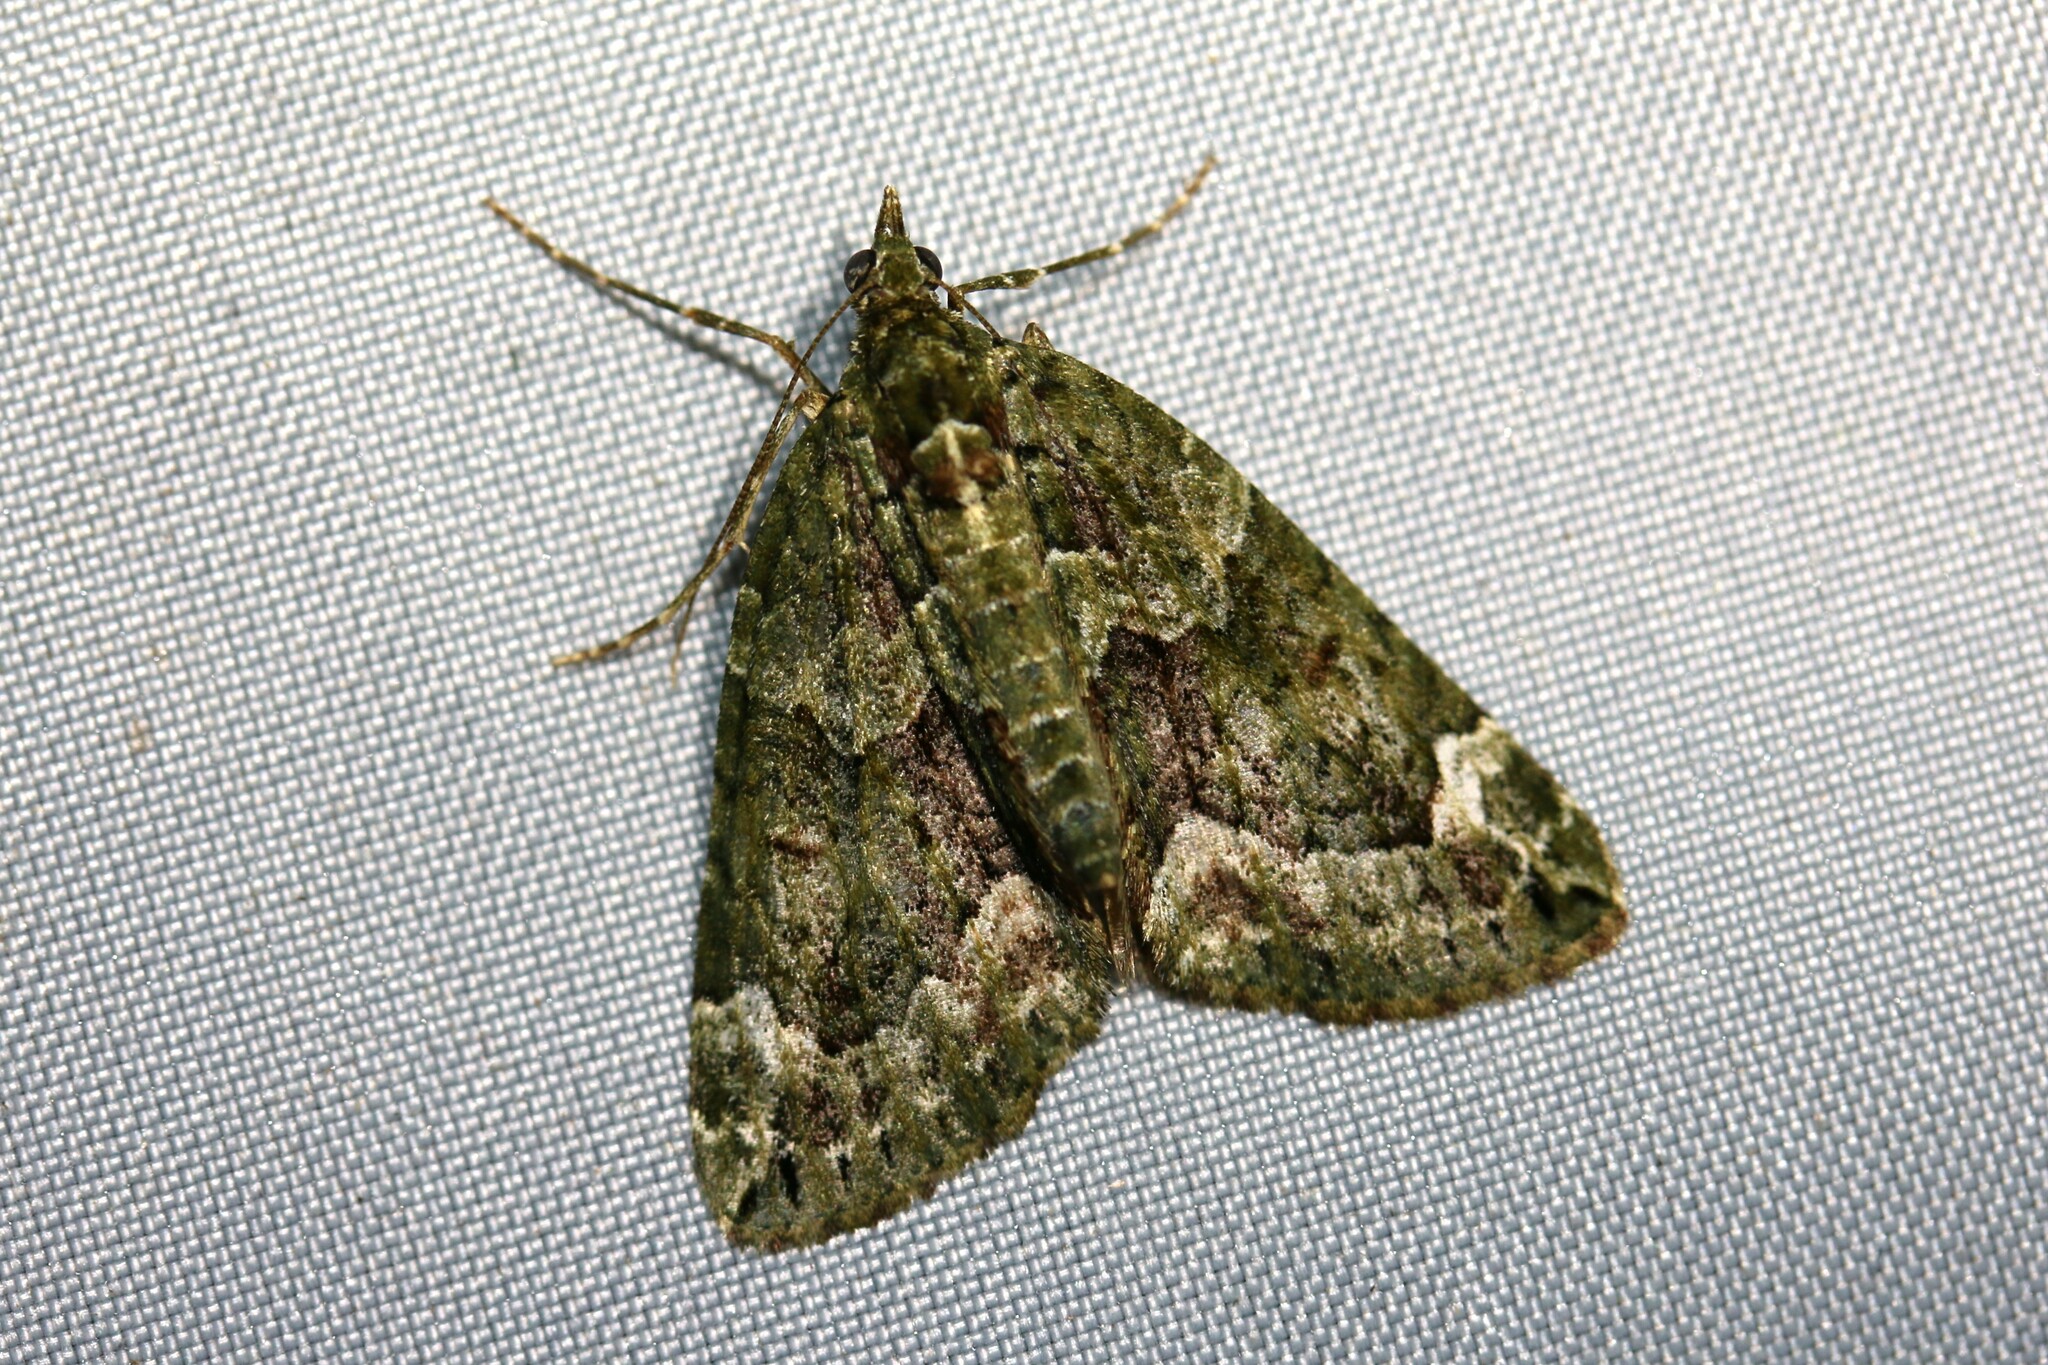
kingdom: Animalia
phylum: Arthropoda
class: Insecta
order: Lepidoptera
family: Geometridae
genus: Chloroclysta
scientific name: Chloroclysta siterata
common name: Red-green carpet
